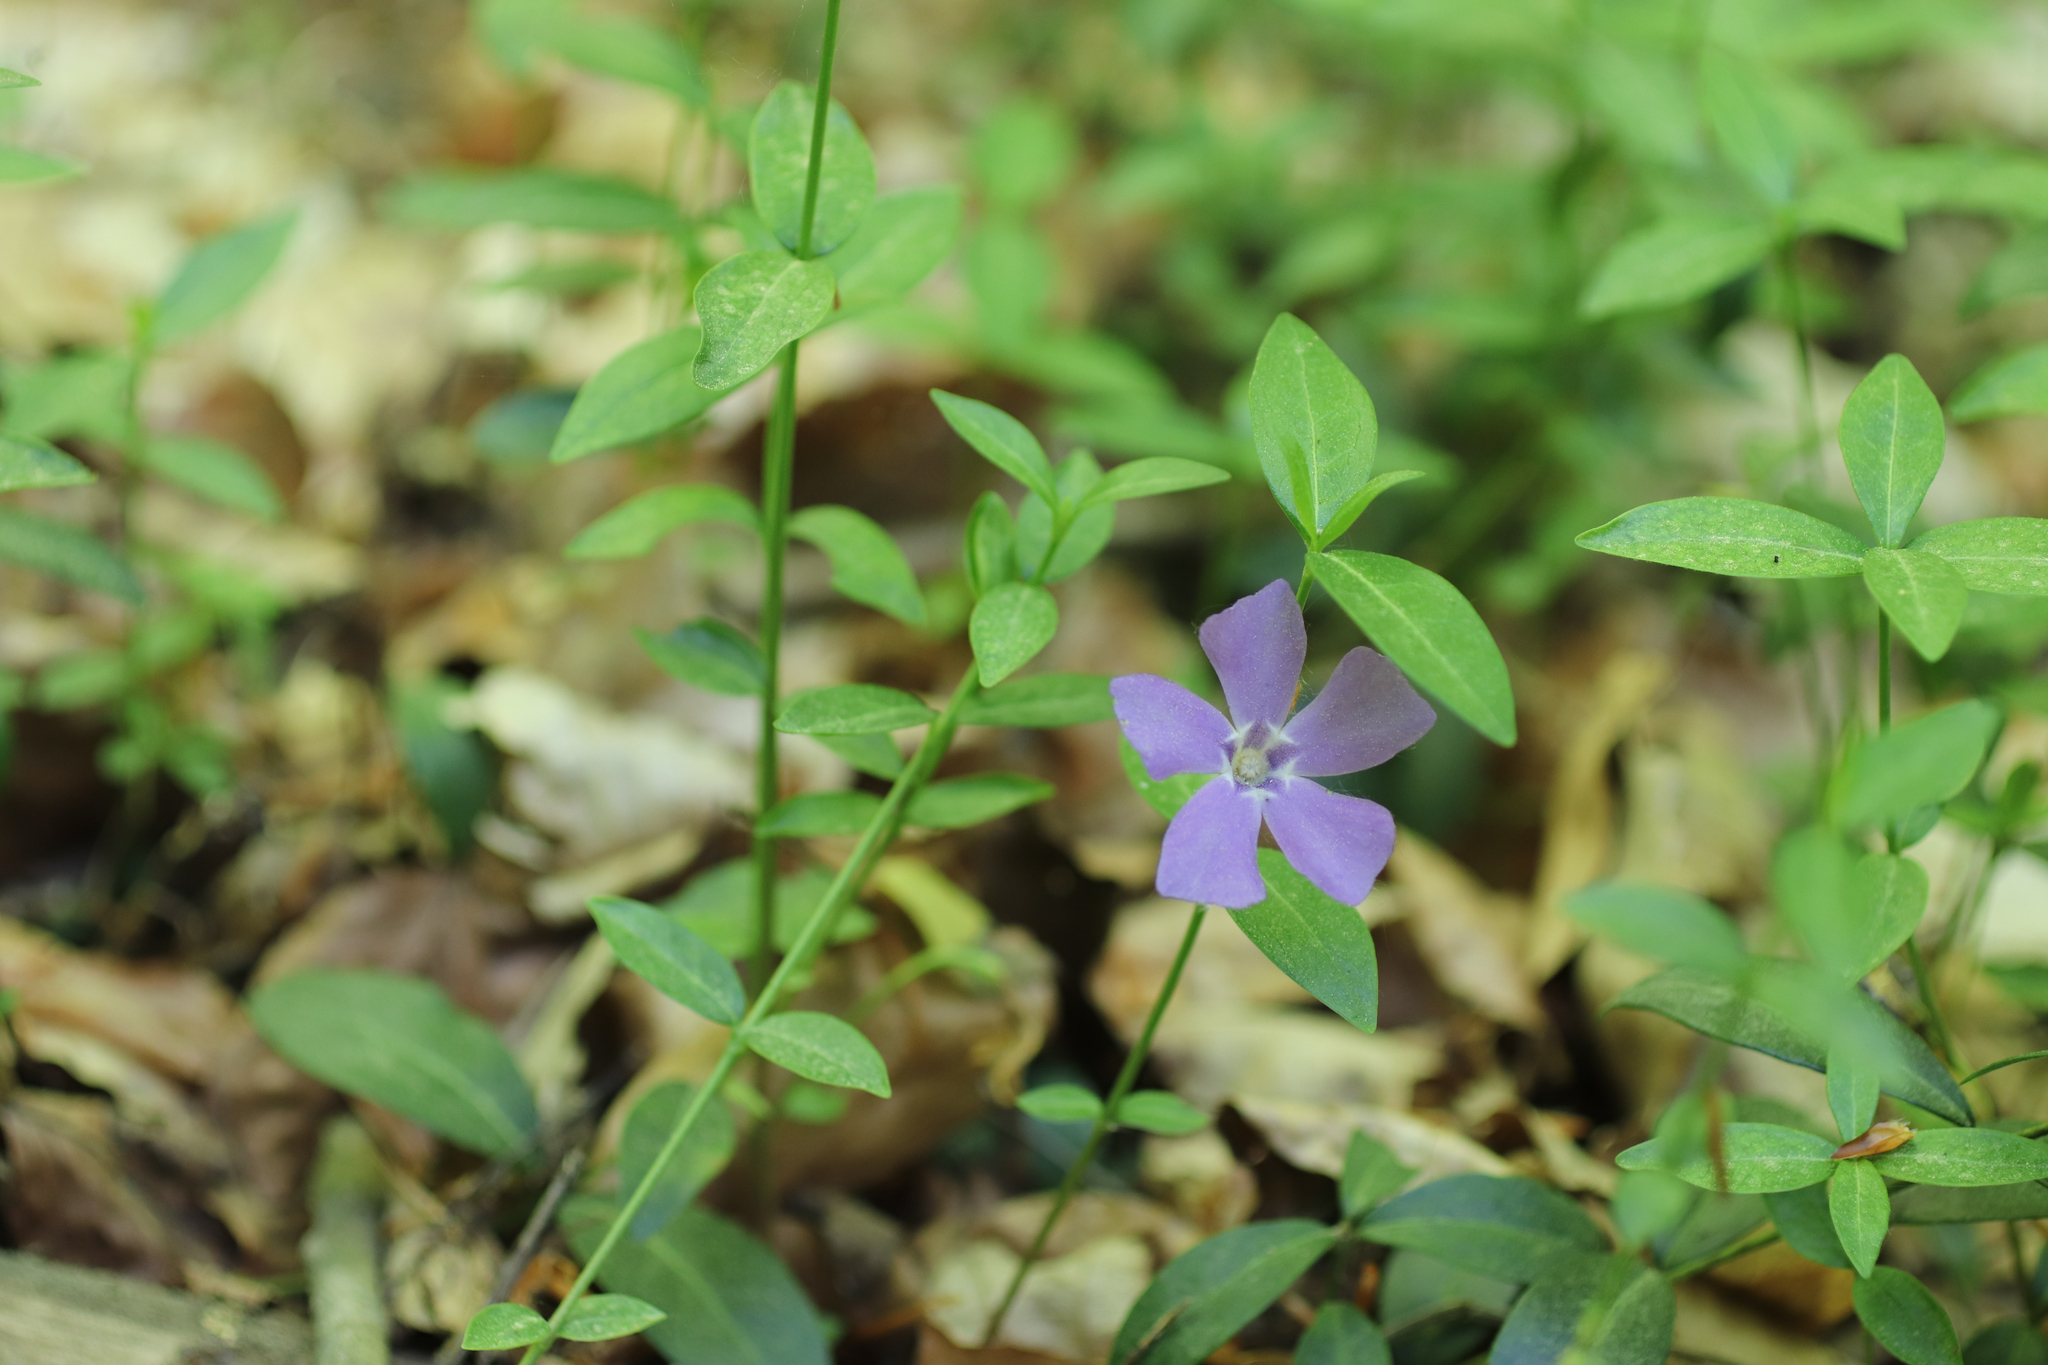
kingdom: Plantae
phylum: Tracheophyta
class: Magnoliopsida
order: Gentianales
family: Apocynaceae
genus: Vinca
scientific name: Vinca minor
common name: Lesser periwinkle
